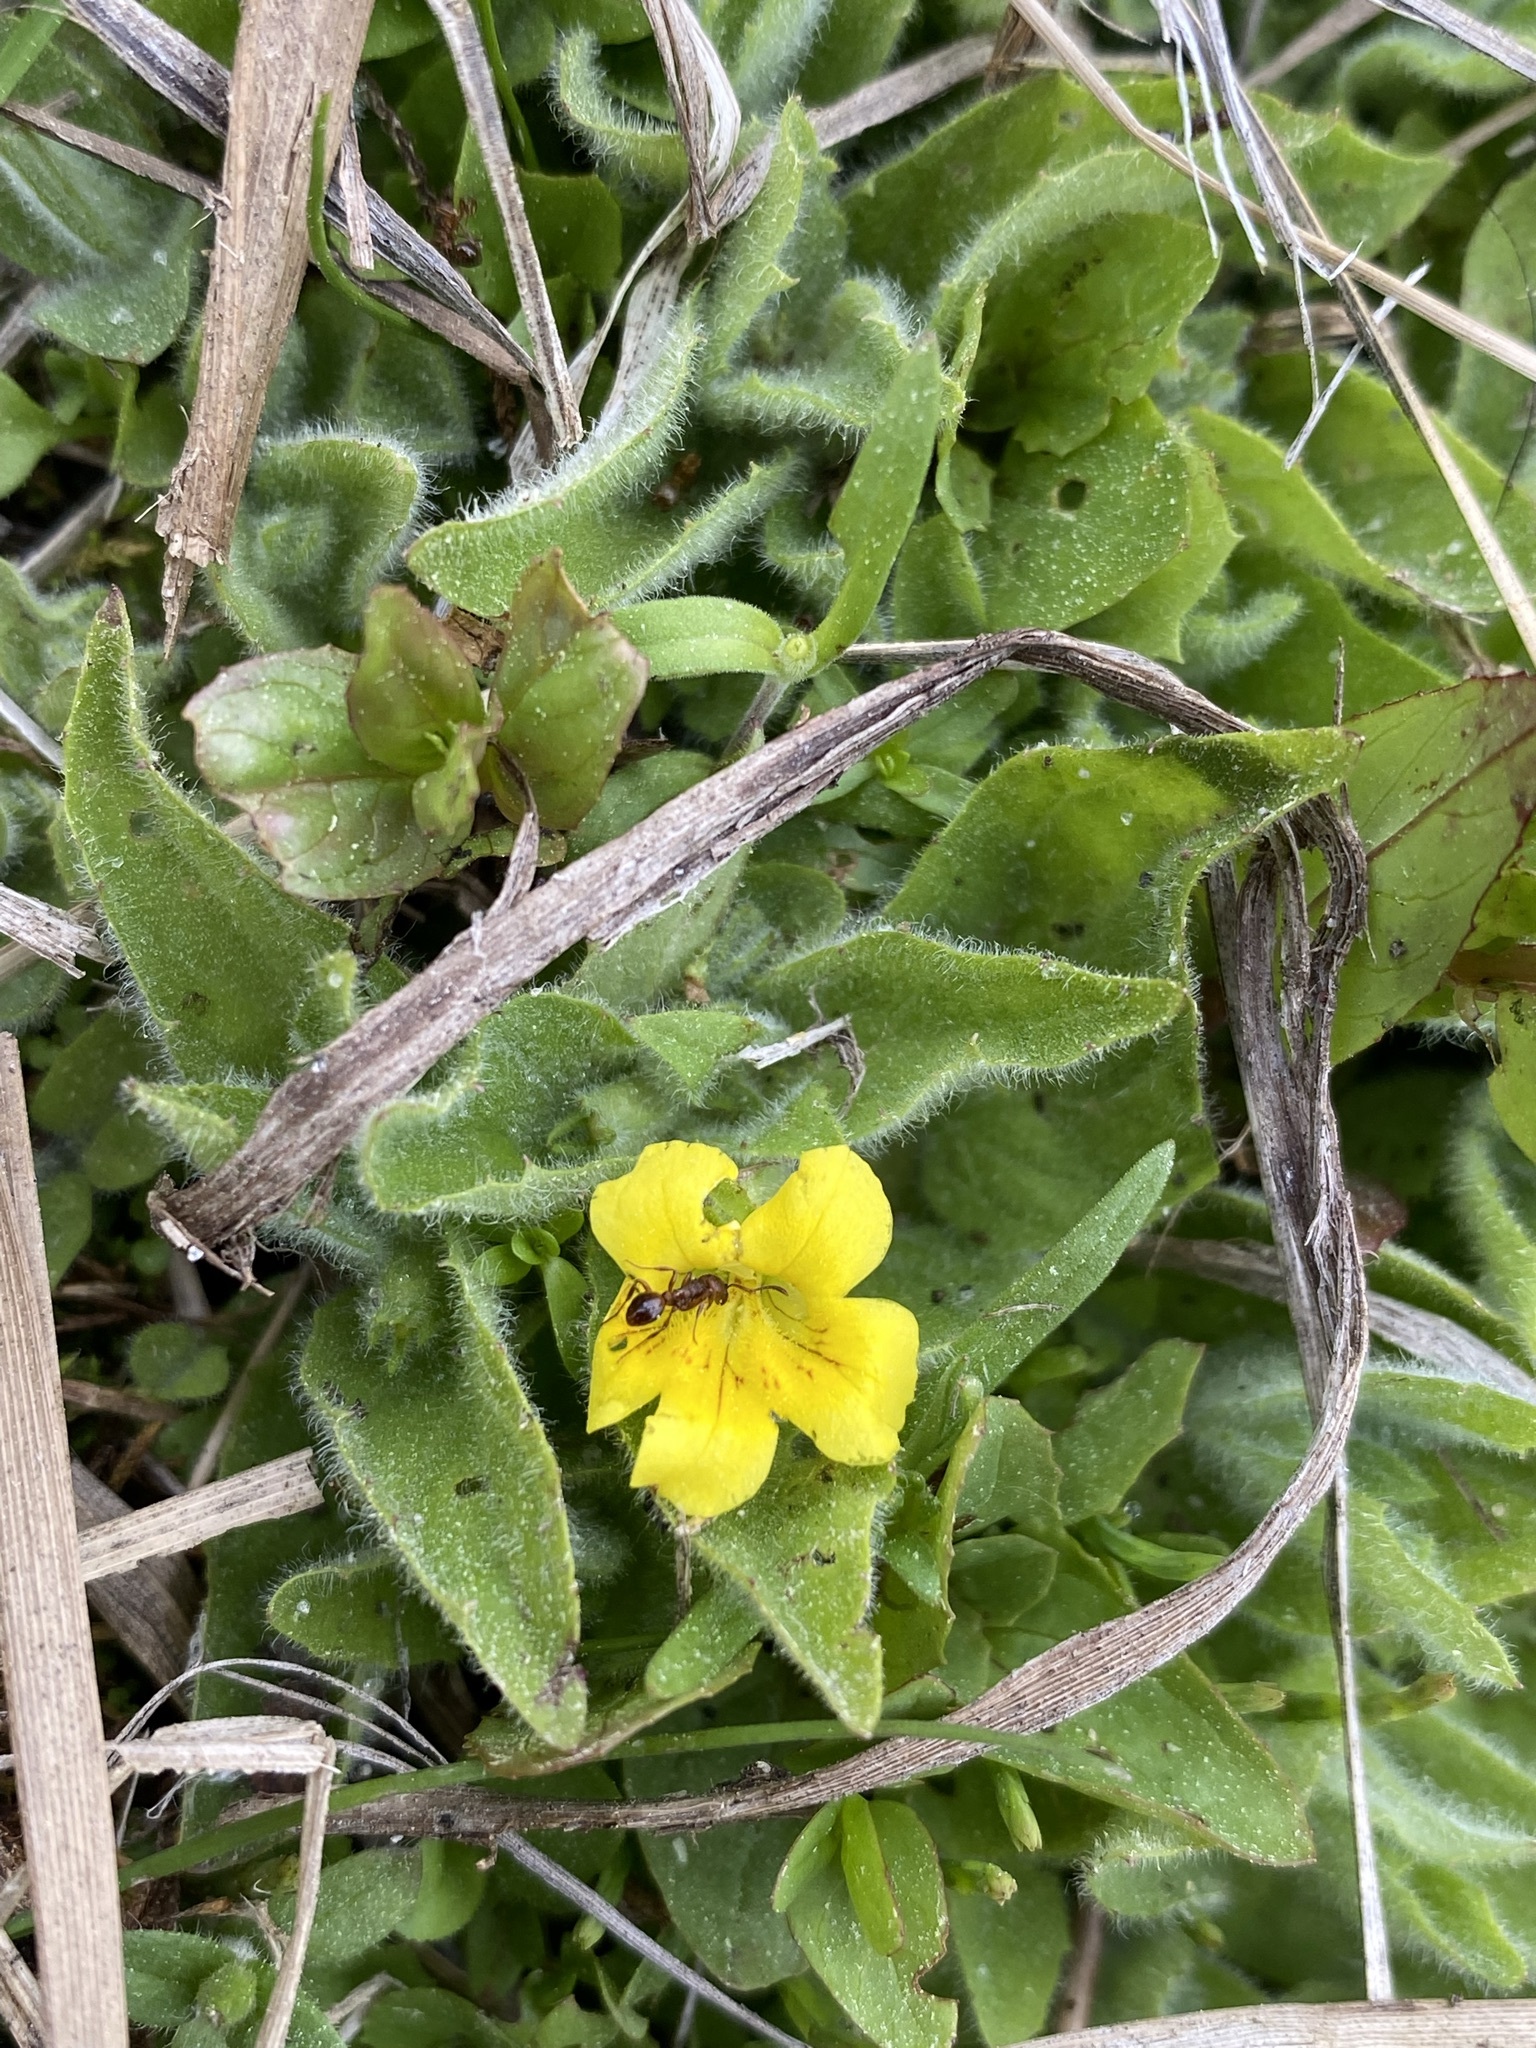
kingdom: Plantae
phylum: Tracheophyta
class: Magnoliopsida
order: Lamiales
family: Phrymaceae
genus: Erythranthe
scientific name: Erythranthe moschata
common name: Muskflower
